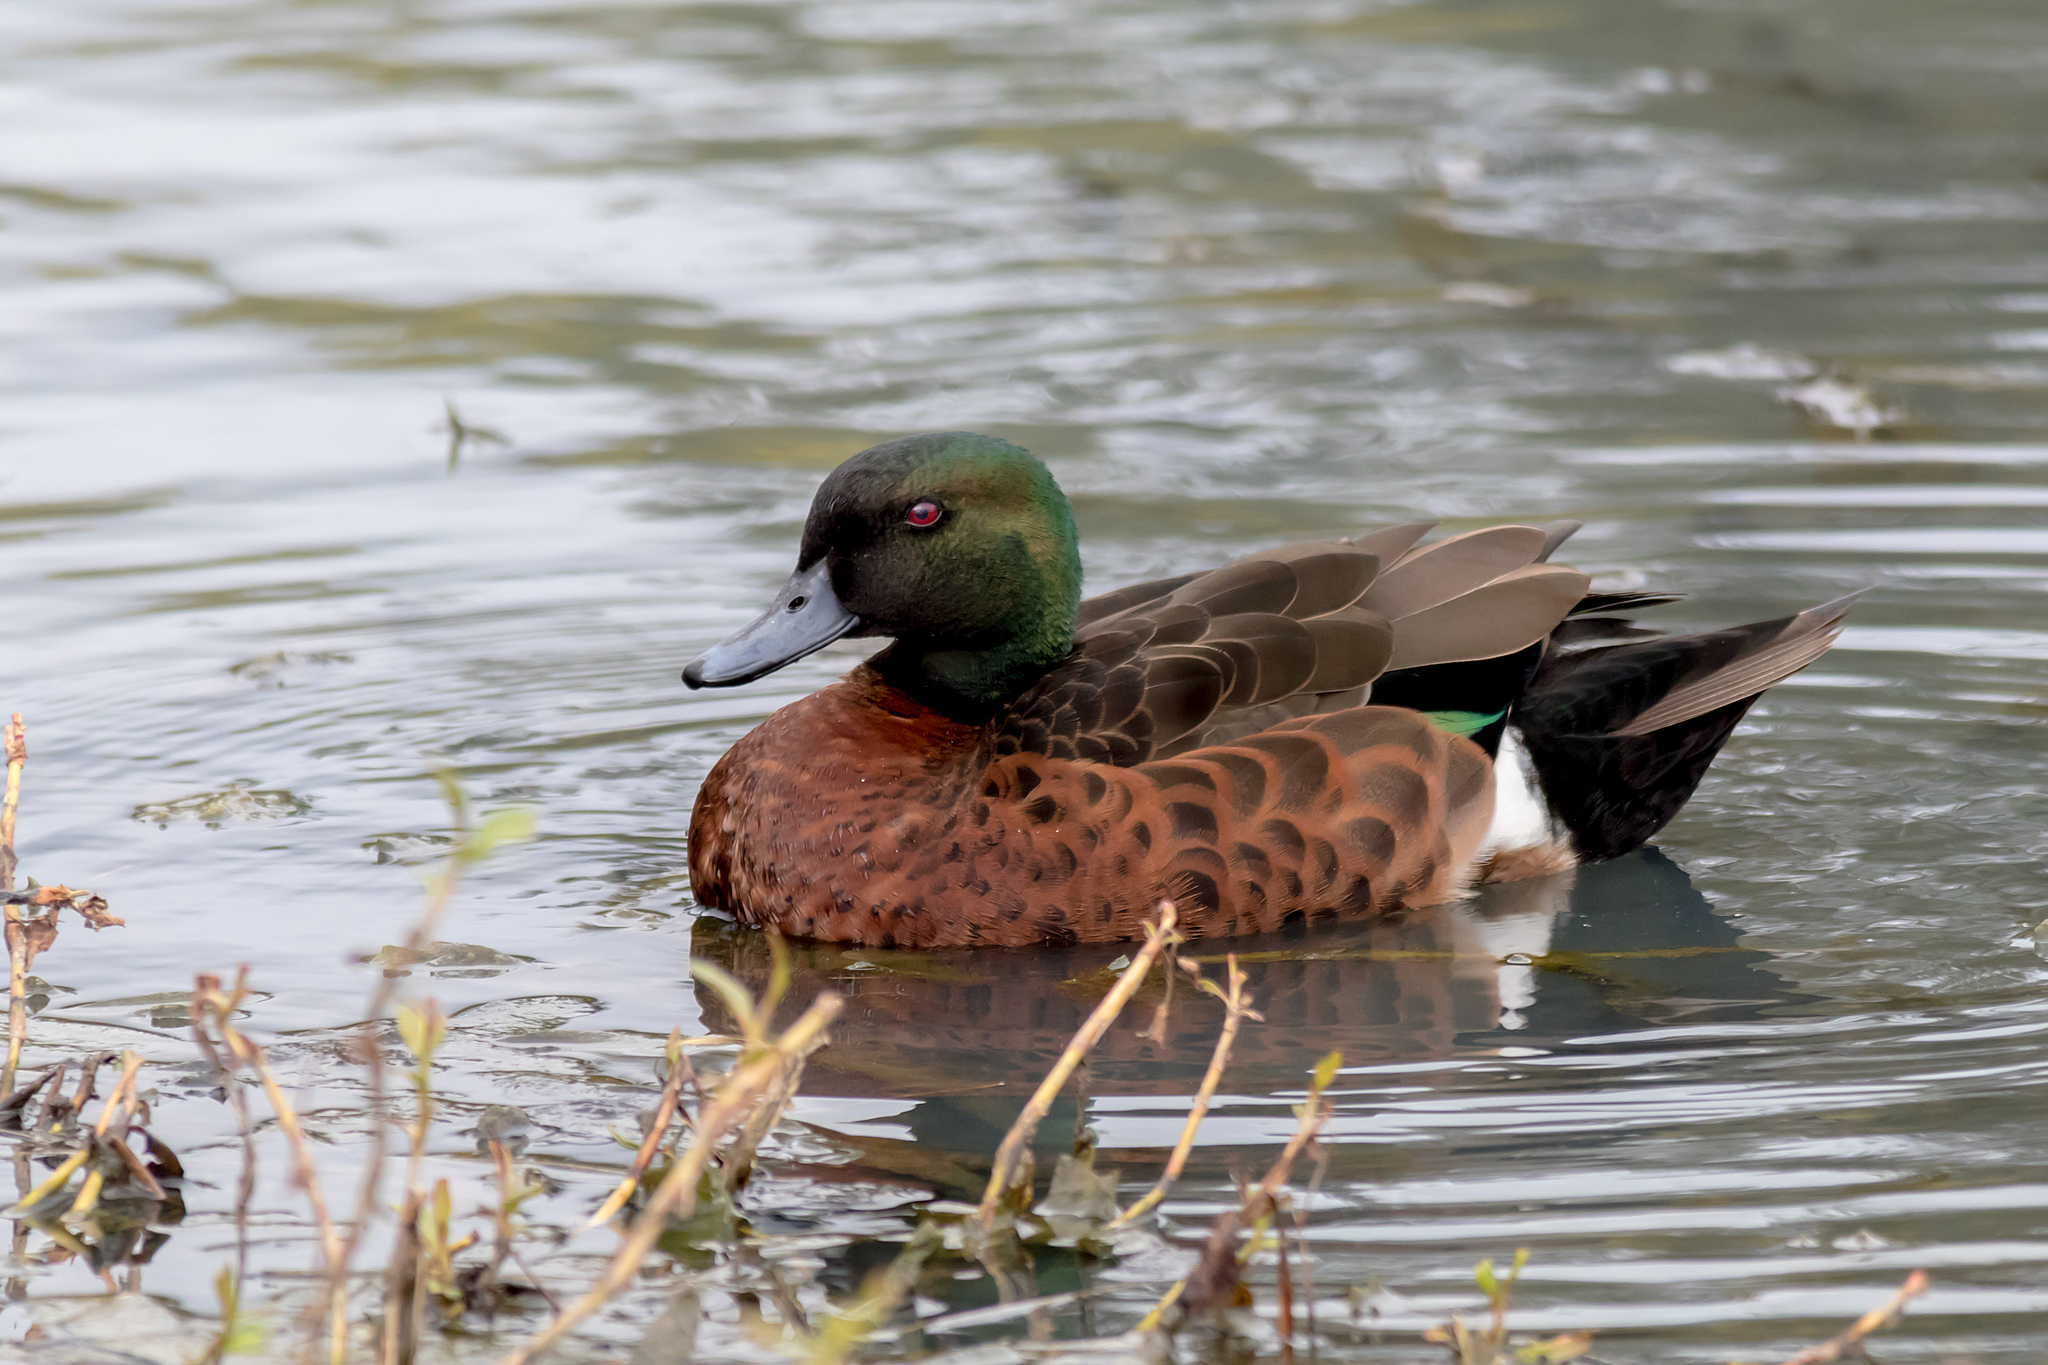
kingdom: Animalia
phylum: Chordata
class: Aves
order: Anseriformes
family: Anatidae
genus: Anas
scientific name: Anas castanea
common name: Chestnut teal
